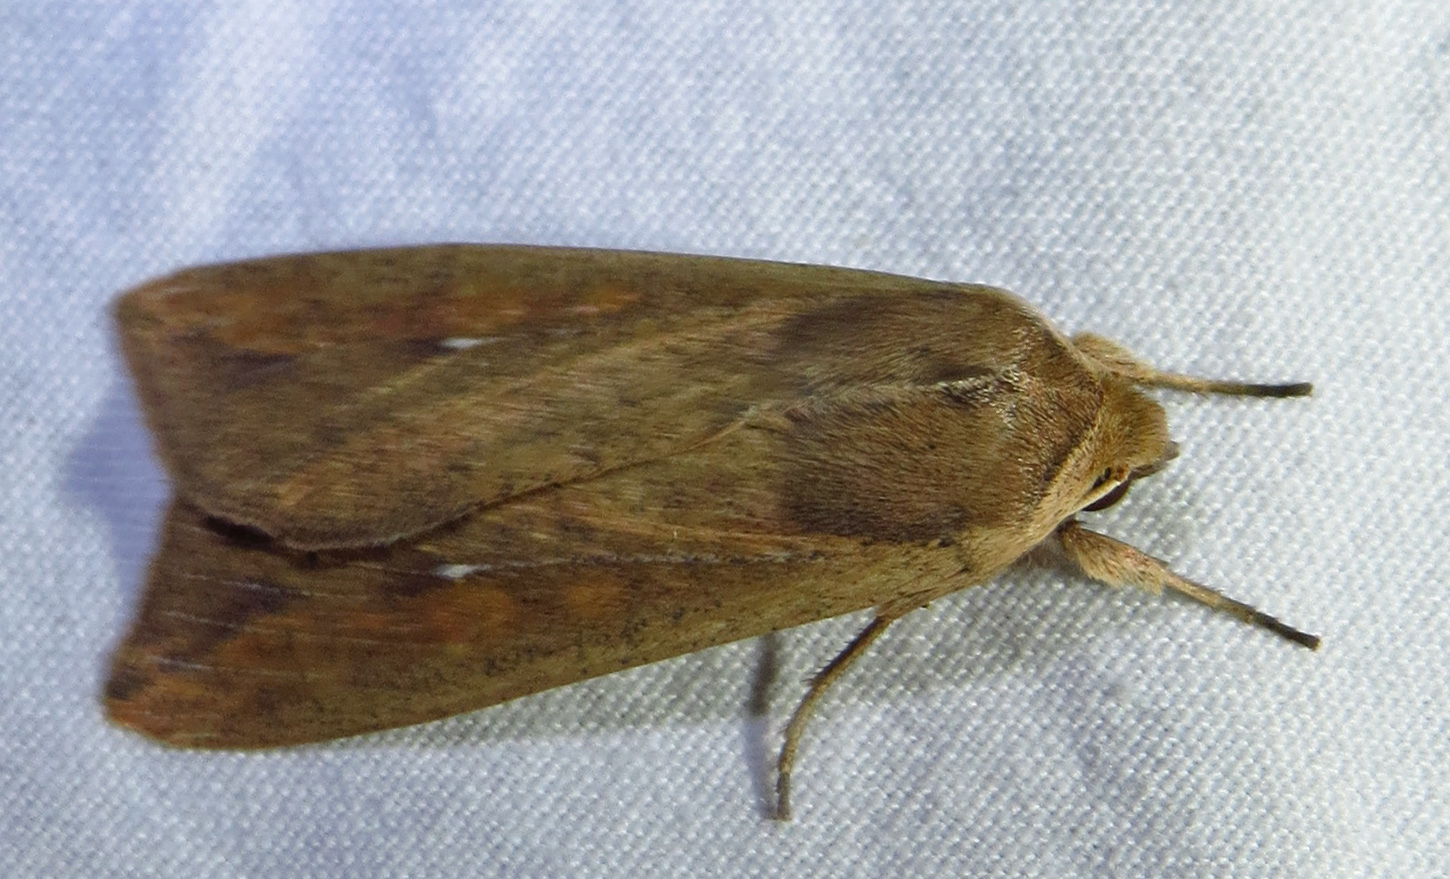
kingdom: Animalia
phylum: Arthropoda
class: Insecta
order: Lepidoptera
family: Noctuidae
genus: Mythimna
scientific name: Mythimna unipuncta
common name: White-speck
